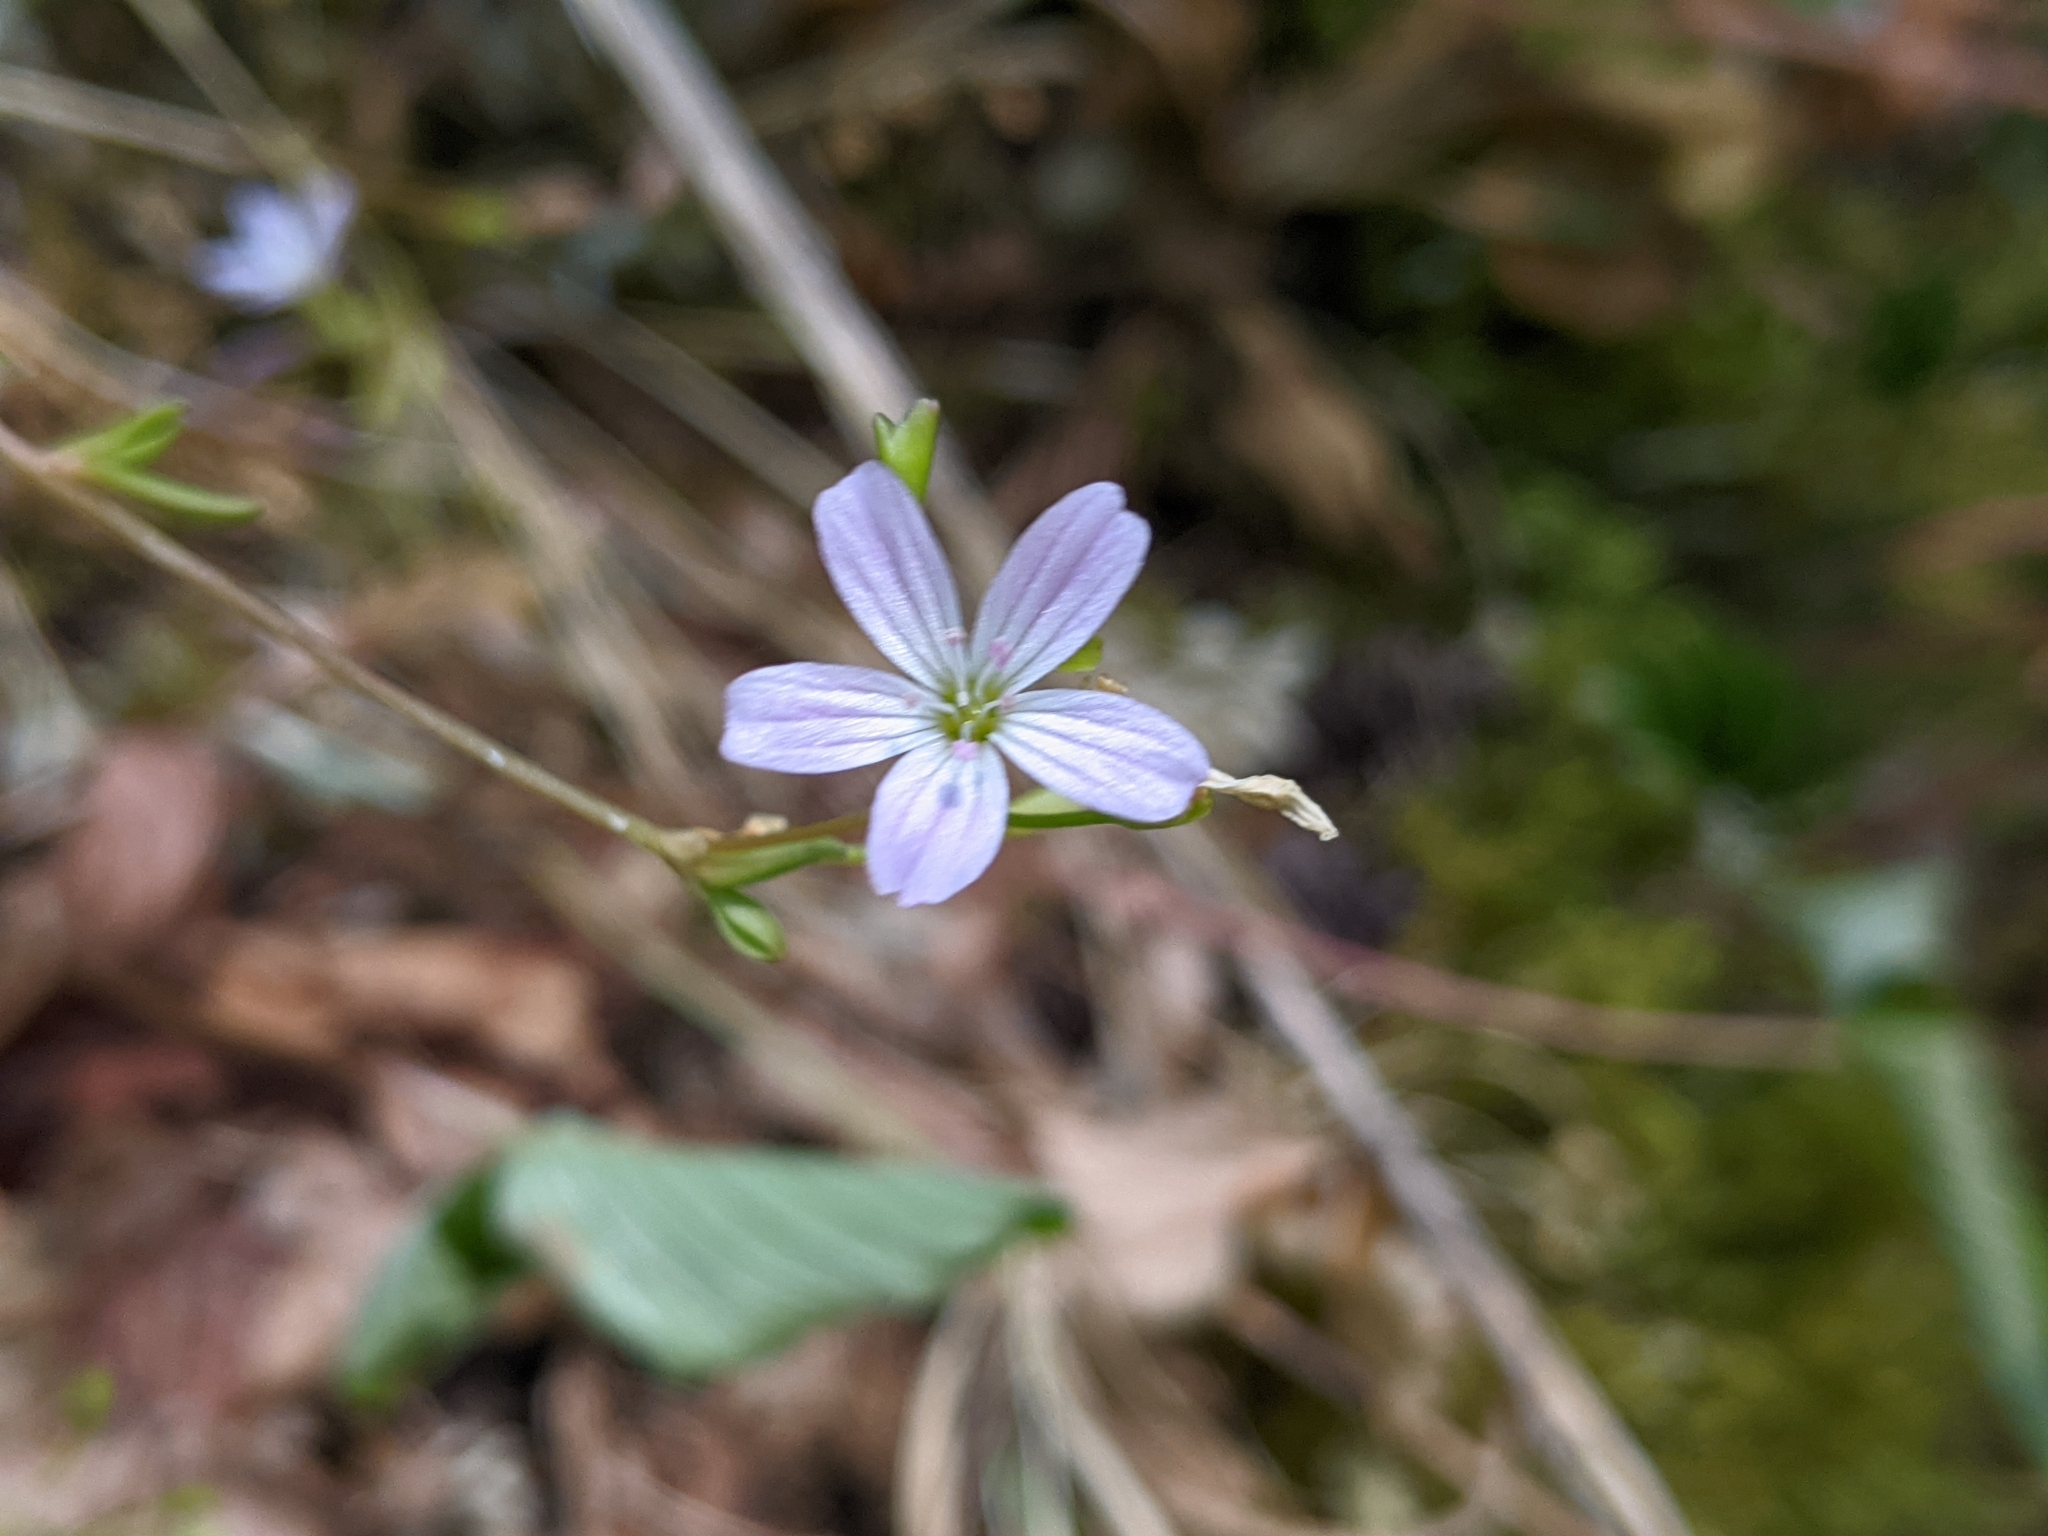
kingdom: Plantae
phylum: Tracheophyta
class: Magnoliopsida
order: Caryophyllales
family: Montiaceae
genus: Montia
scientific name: Montia parvifolia
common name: Small-leaved blinks
